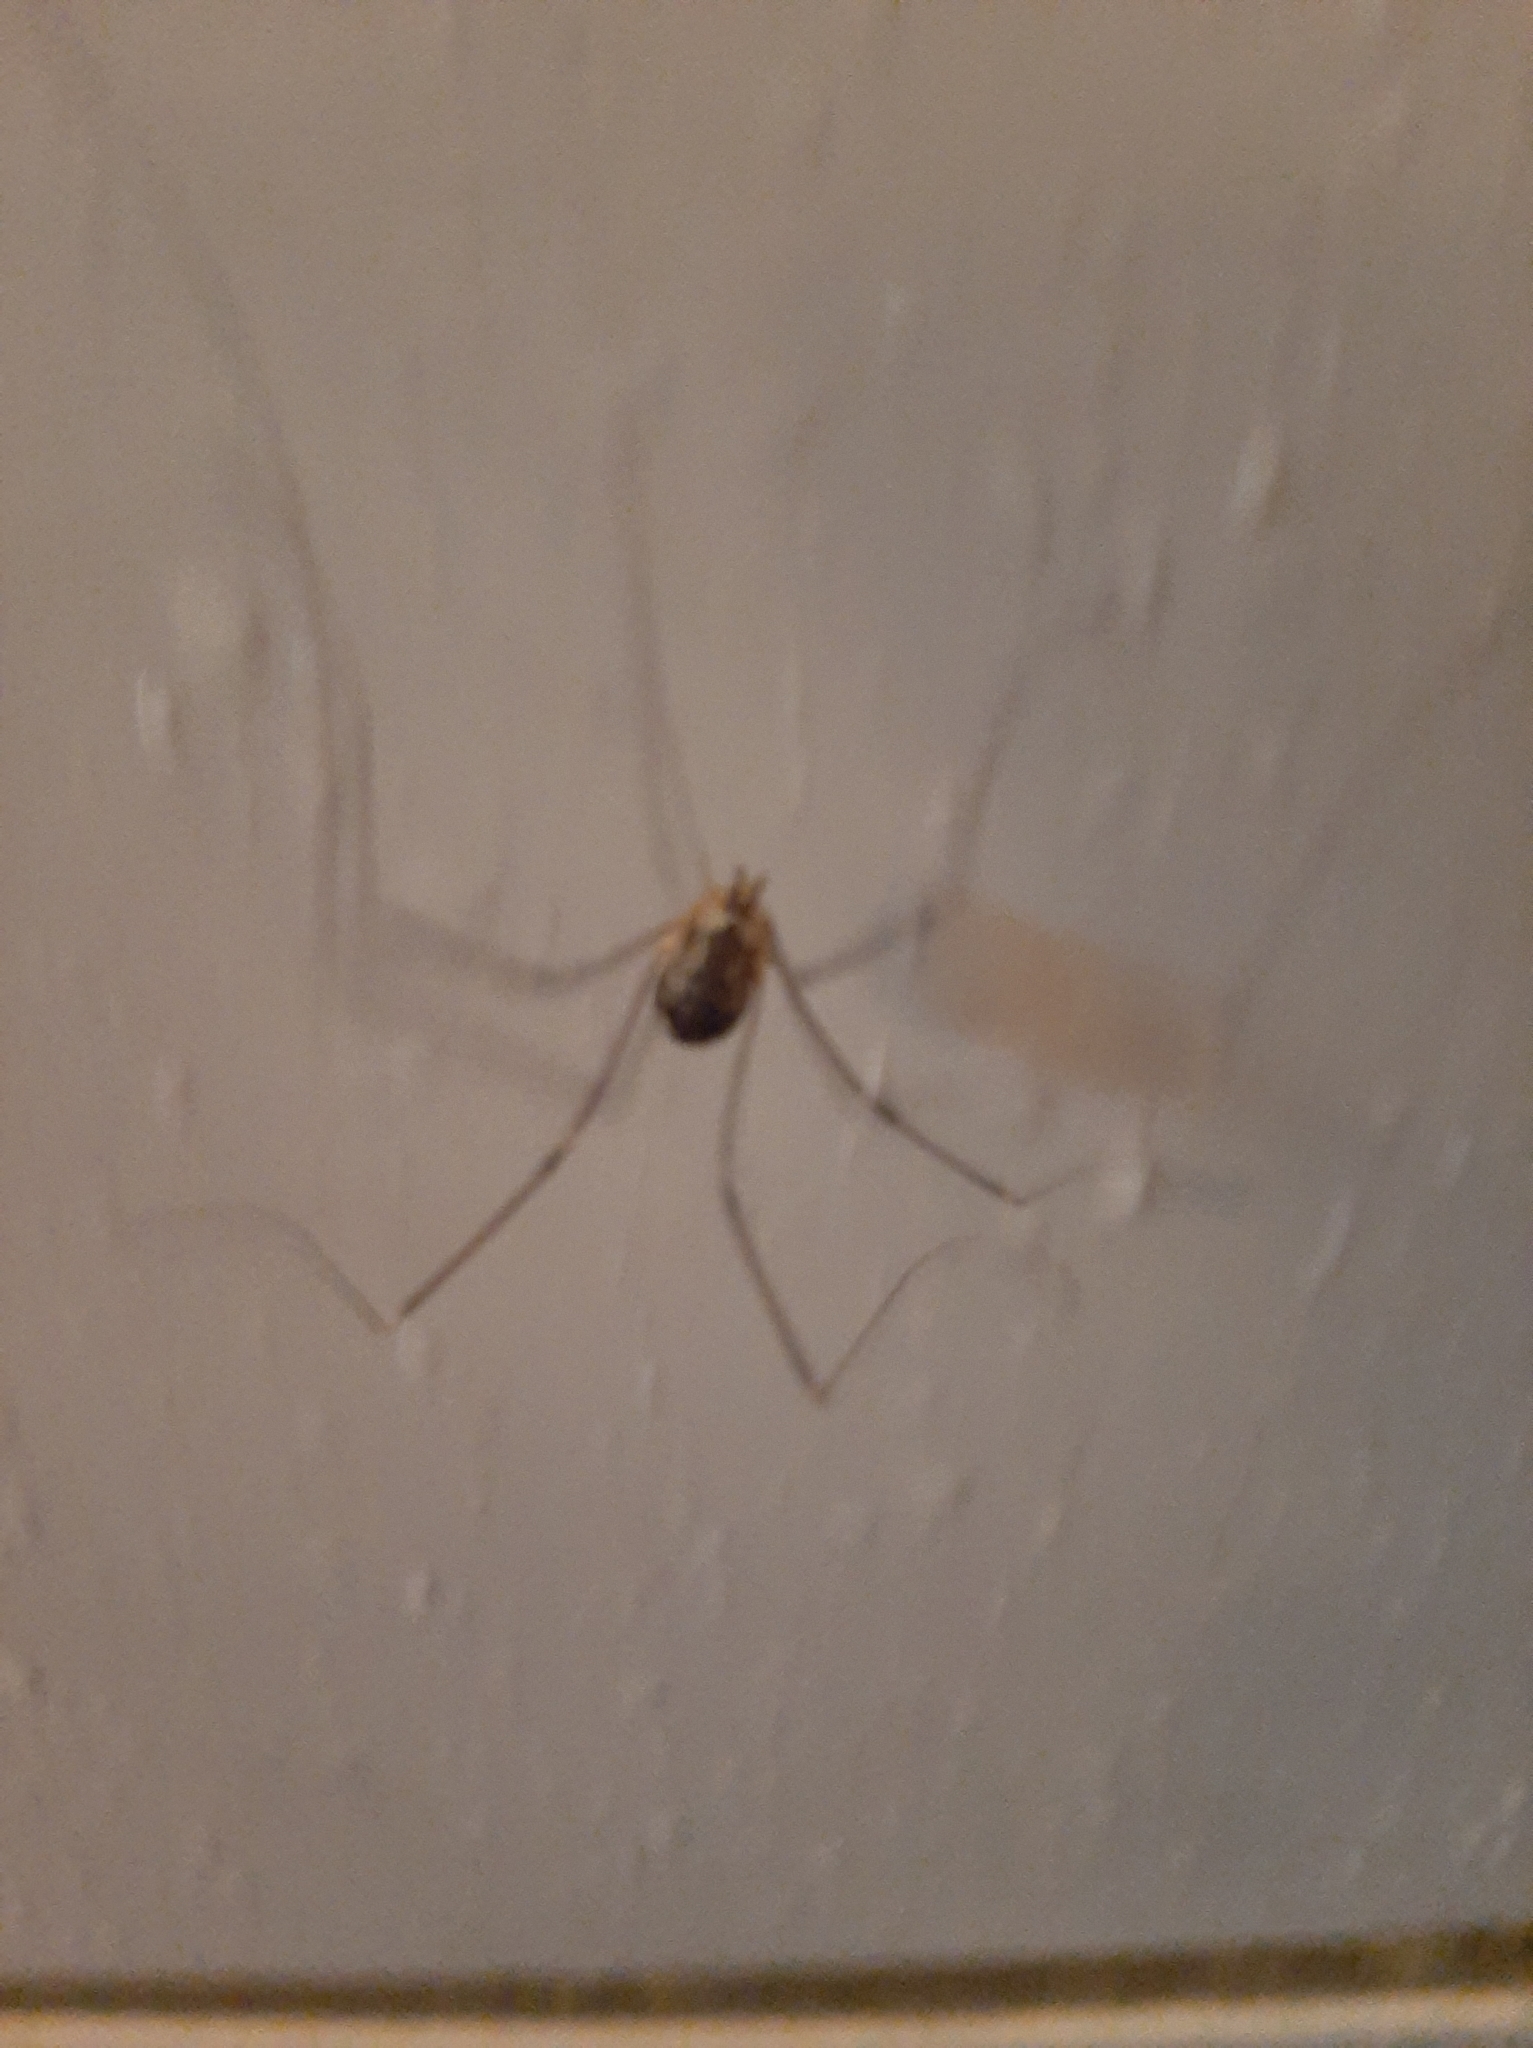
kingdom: Animalia
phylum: Arthropoda
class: Arachnida
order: Opiliones
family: Sclerosomatidae
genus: Leiobunum
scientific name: Leiobunum gracile
